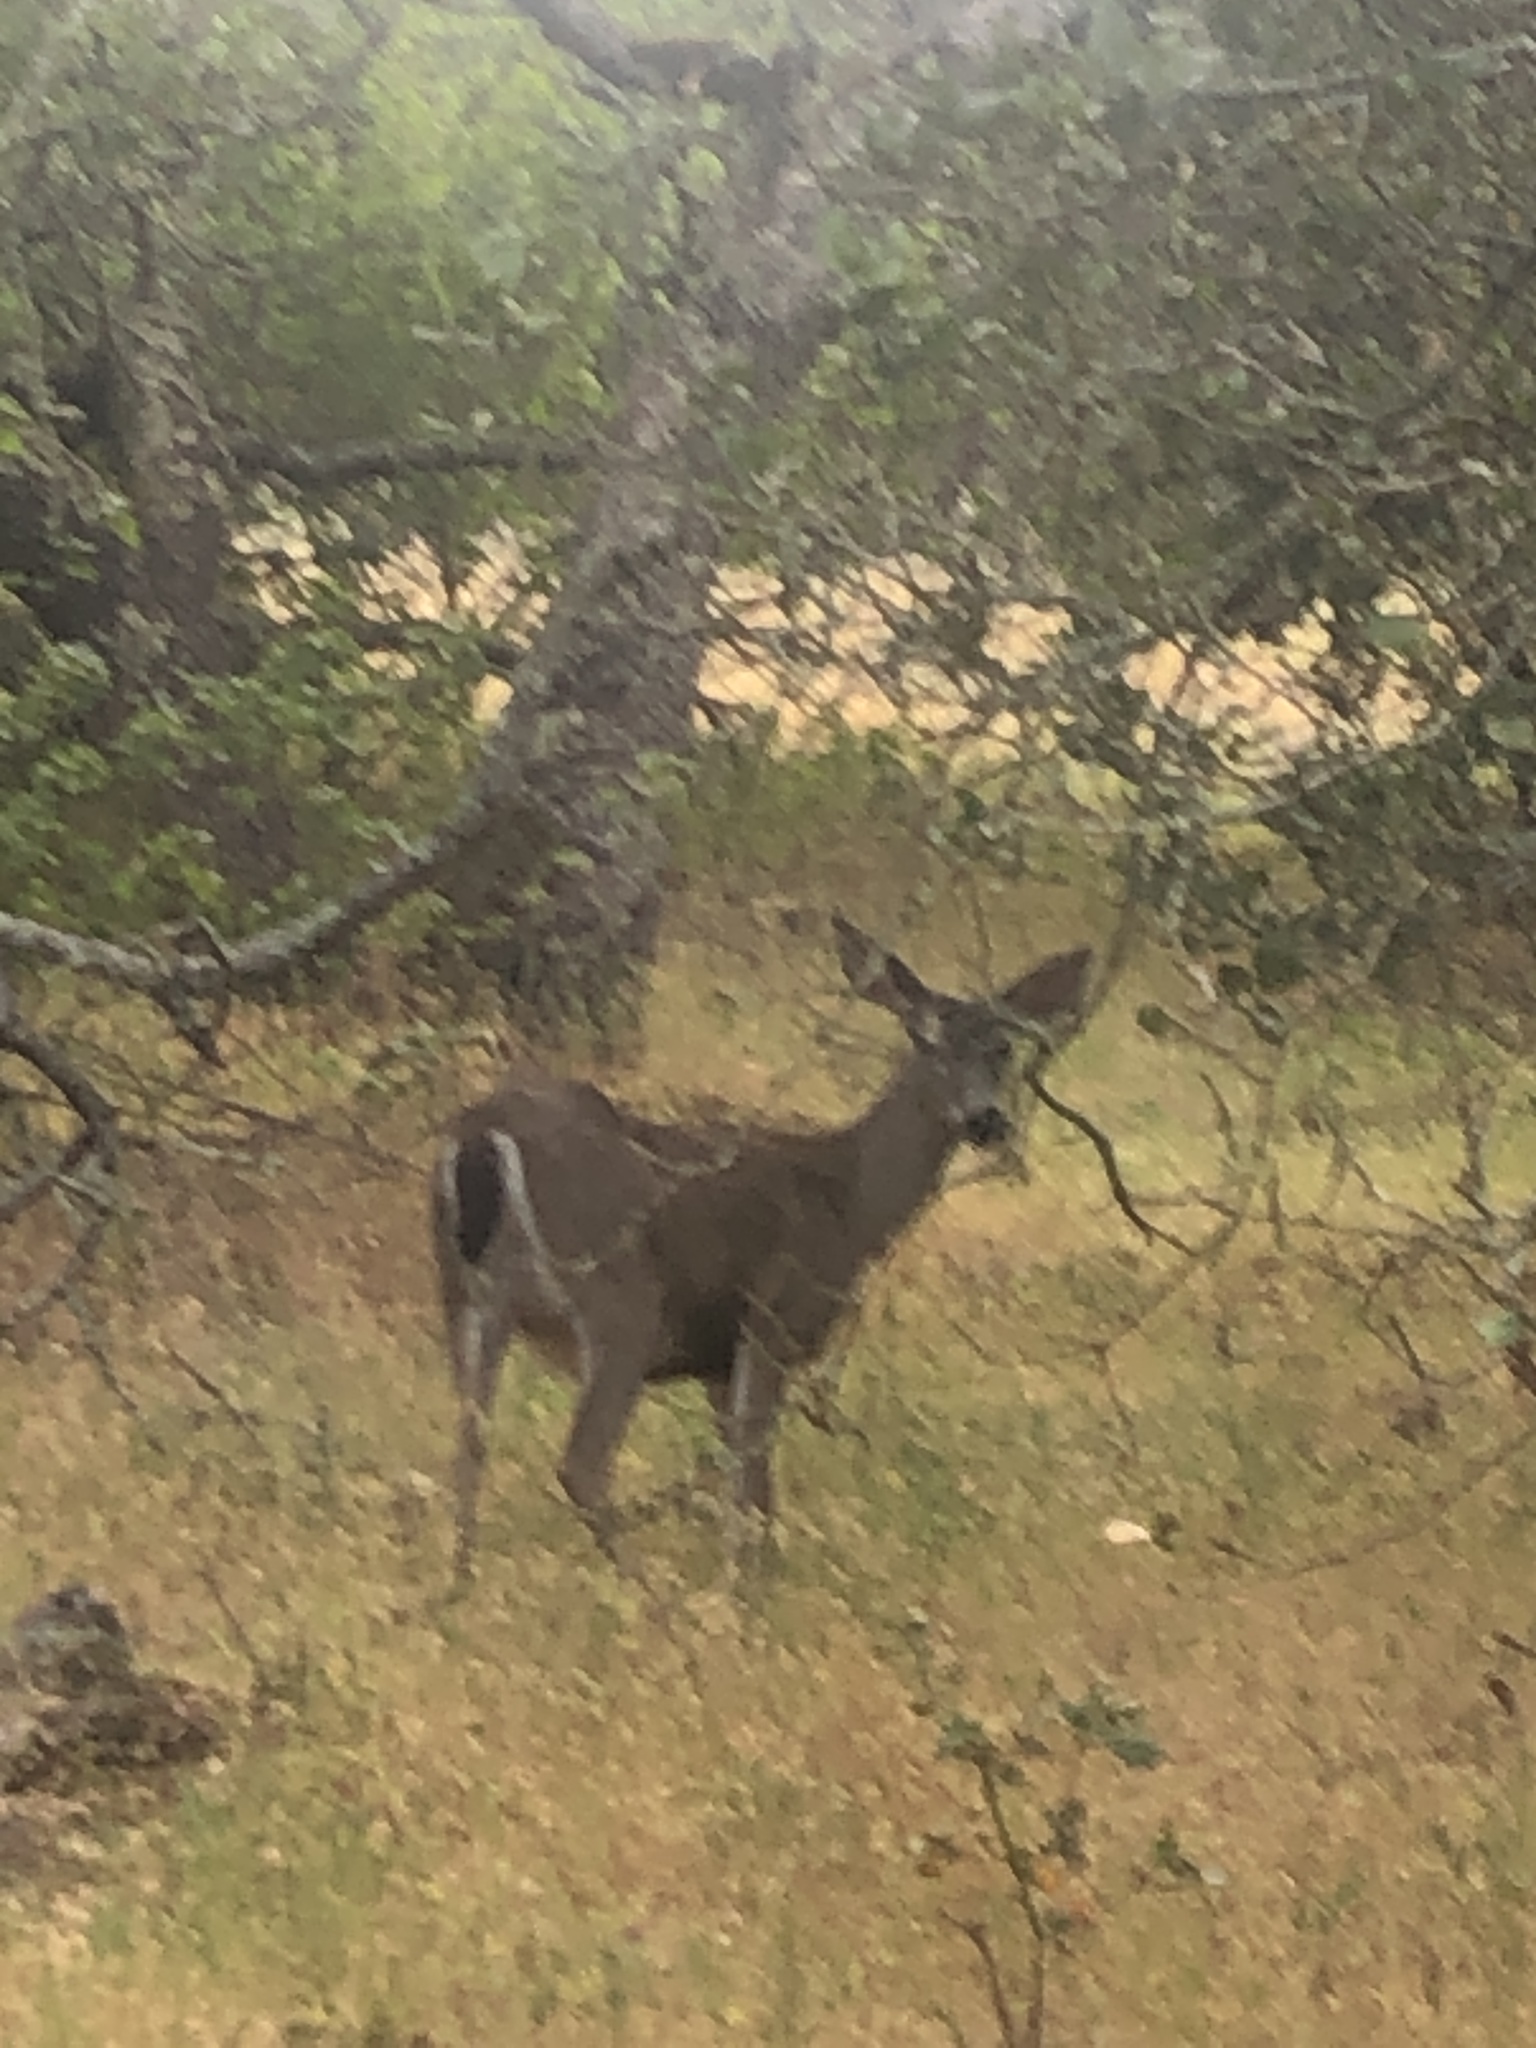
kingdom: Animalia
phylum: Chordata
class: Mammalia
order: Artiodactyla
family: Cervidae
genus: Odocoileus
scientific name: Odocoileus hemionus
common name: Mule deer
